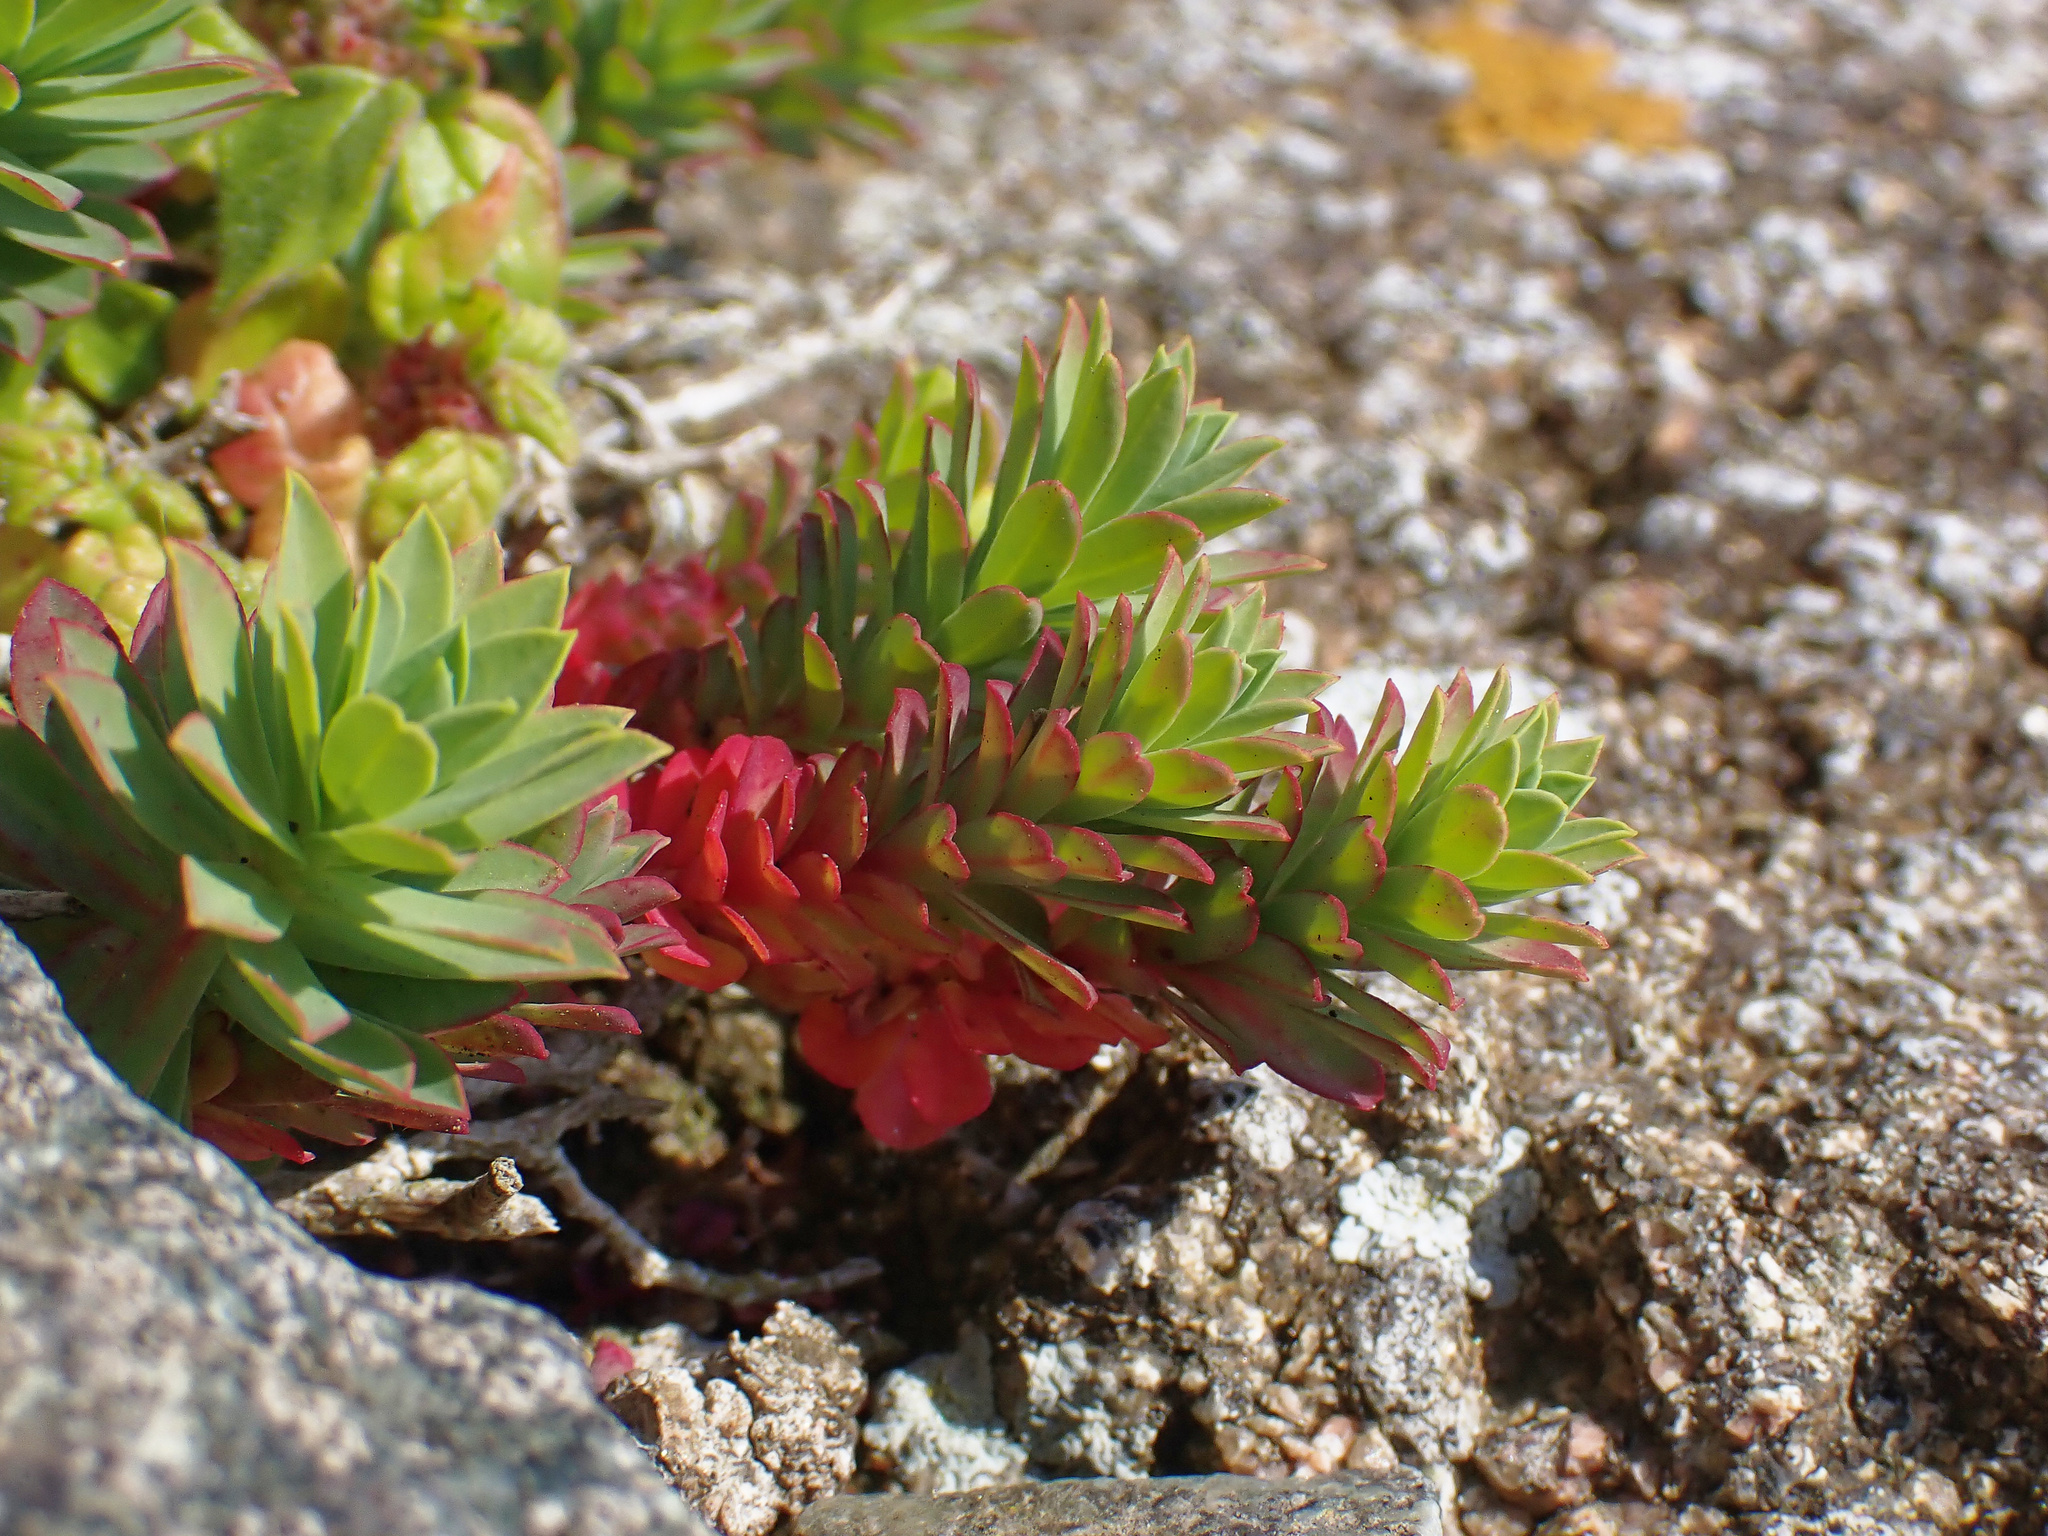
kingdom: Plantae
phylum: Tracheophyta
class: Magnoliopsida
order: Malpighiales
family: Euphorbiaceae
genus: Euphorbia
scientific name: Euphorbia portlandica
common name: Portland spurge
